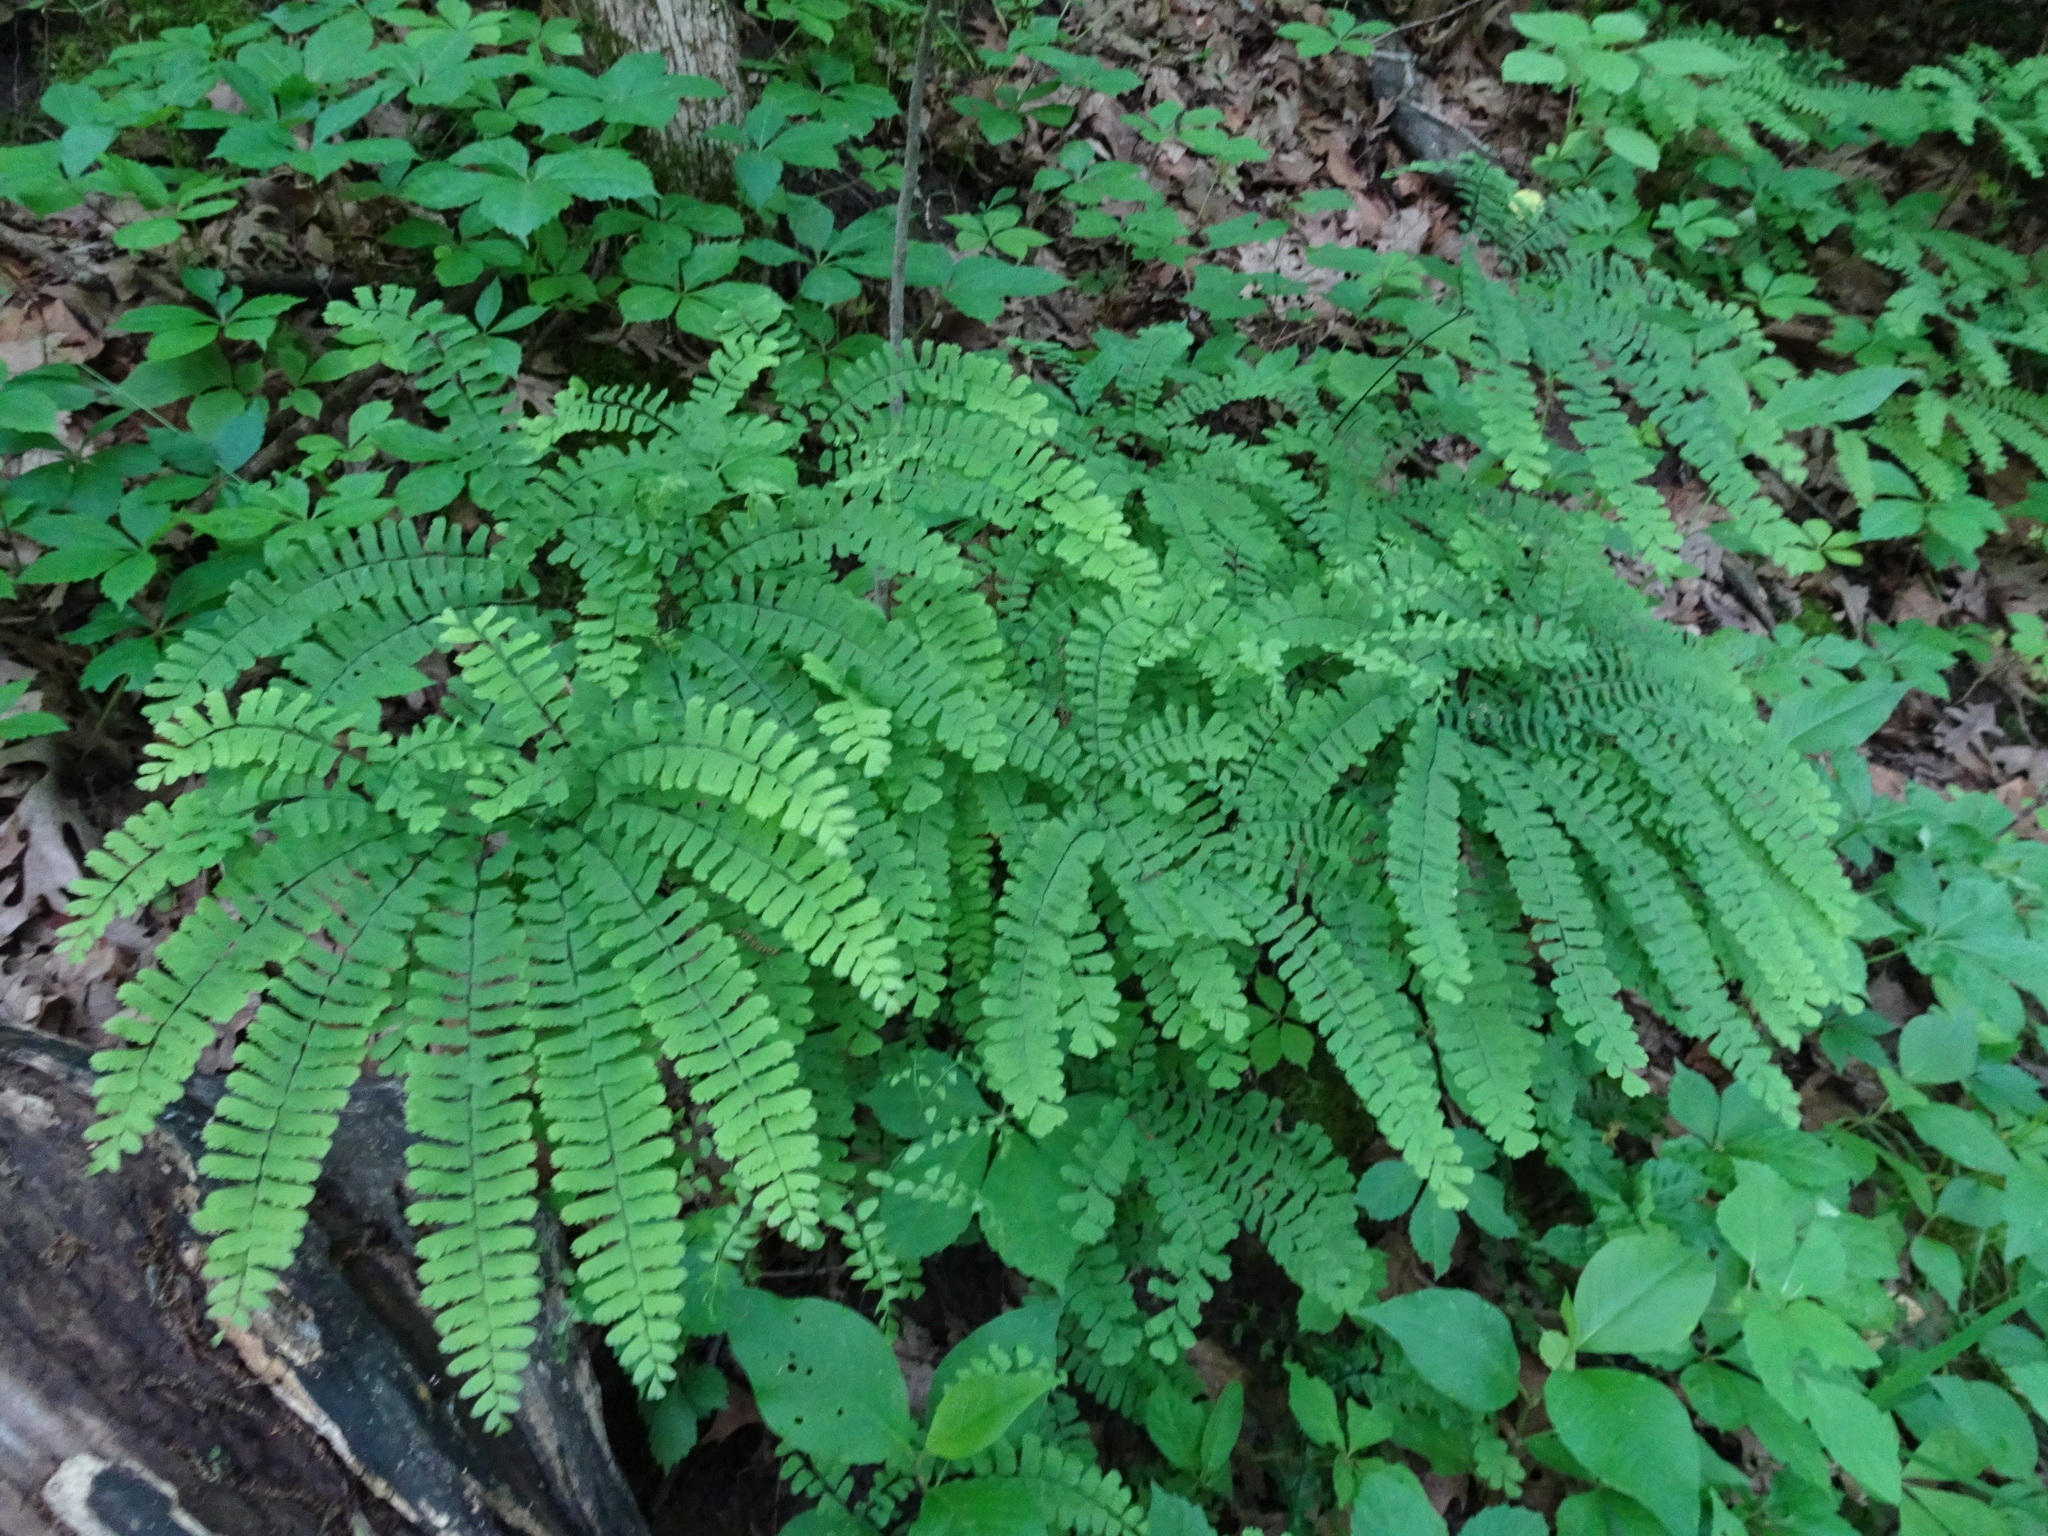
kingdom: Plantae
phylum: Tracheophyta
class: Polypodiopsida
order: Polypodiales
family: Pteridaceae
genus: Adiantum
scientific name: Adiantum pedatum
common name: Five-finger fern
